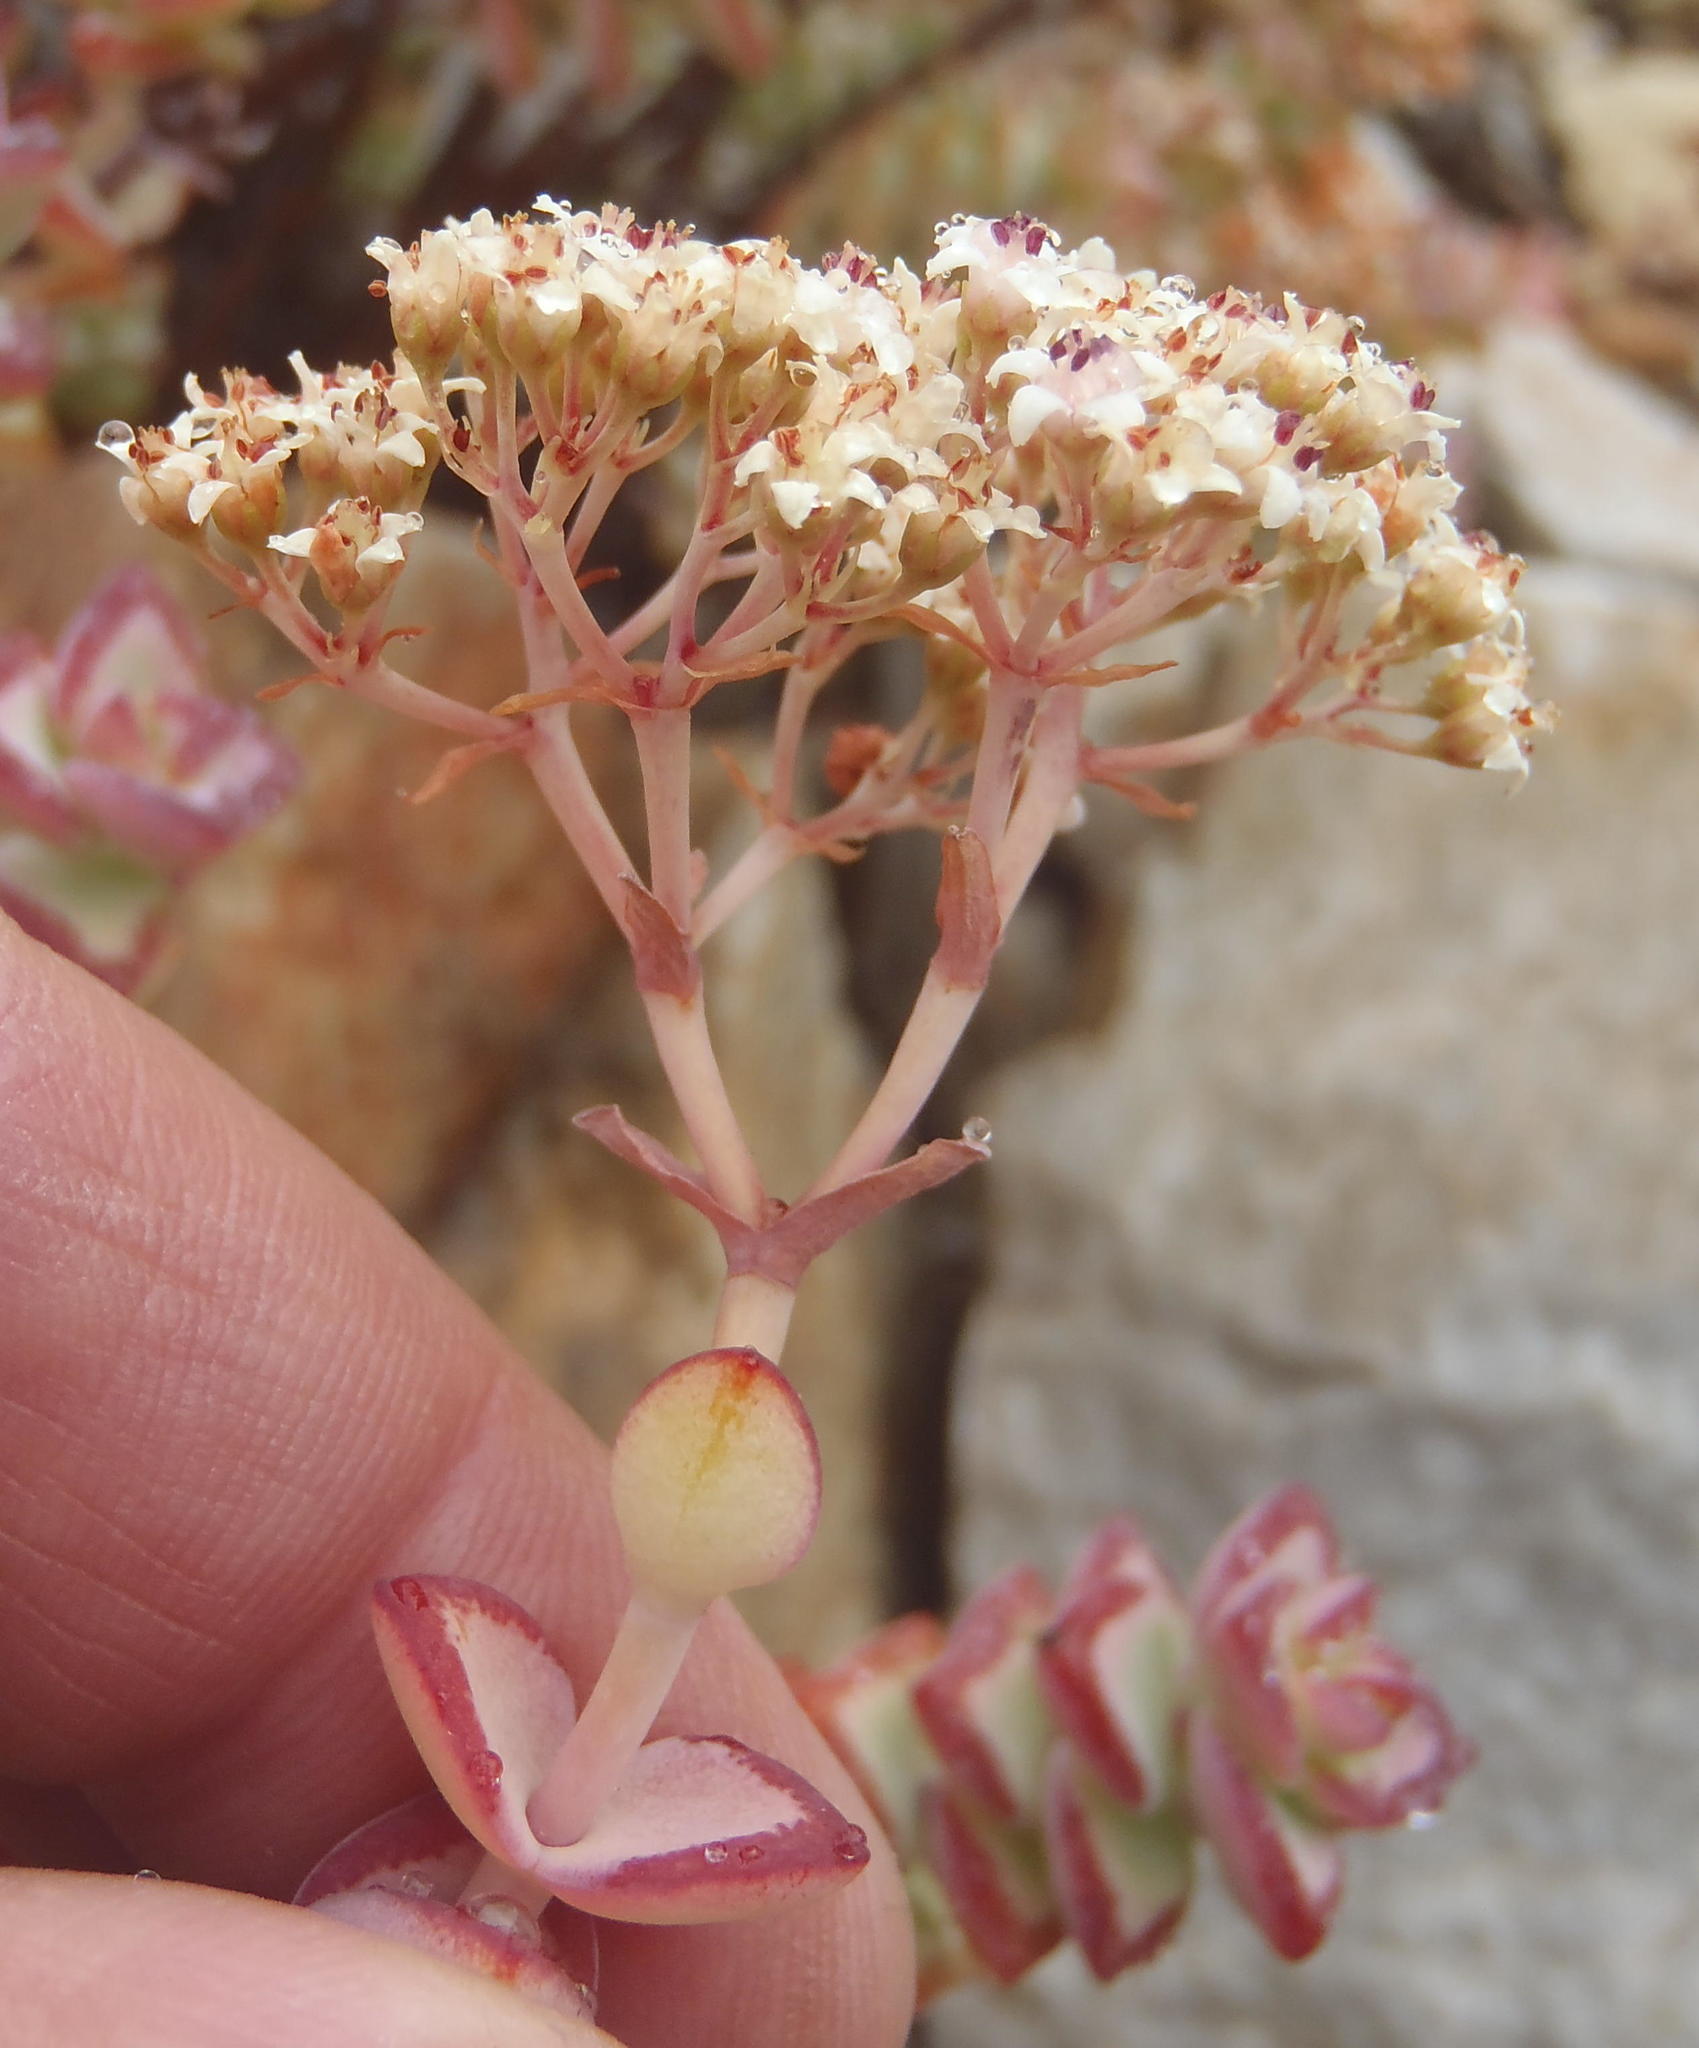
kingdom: Plantae
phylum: Tracheophyta
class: Magnoliopsida
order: Saxifragales
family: Crassulaceae
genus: Crassula
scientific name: Crassula rupestris
